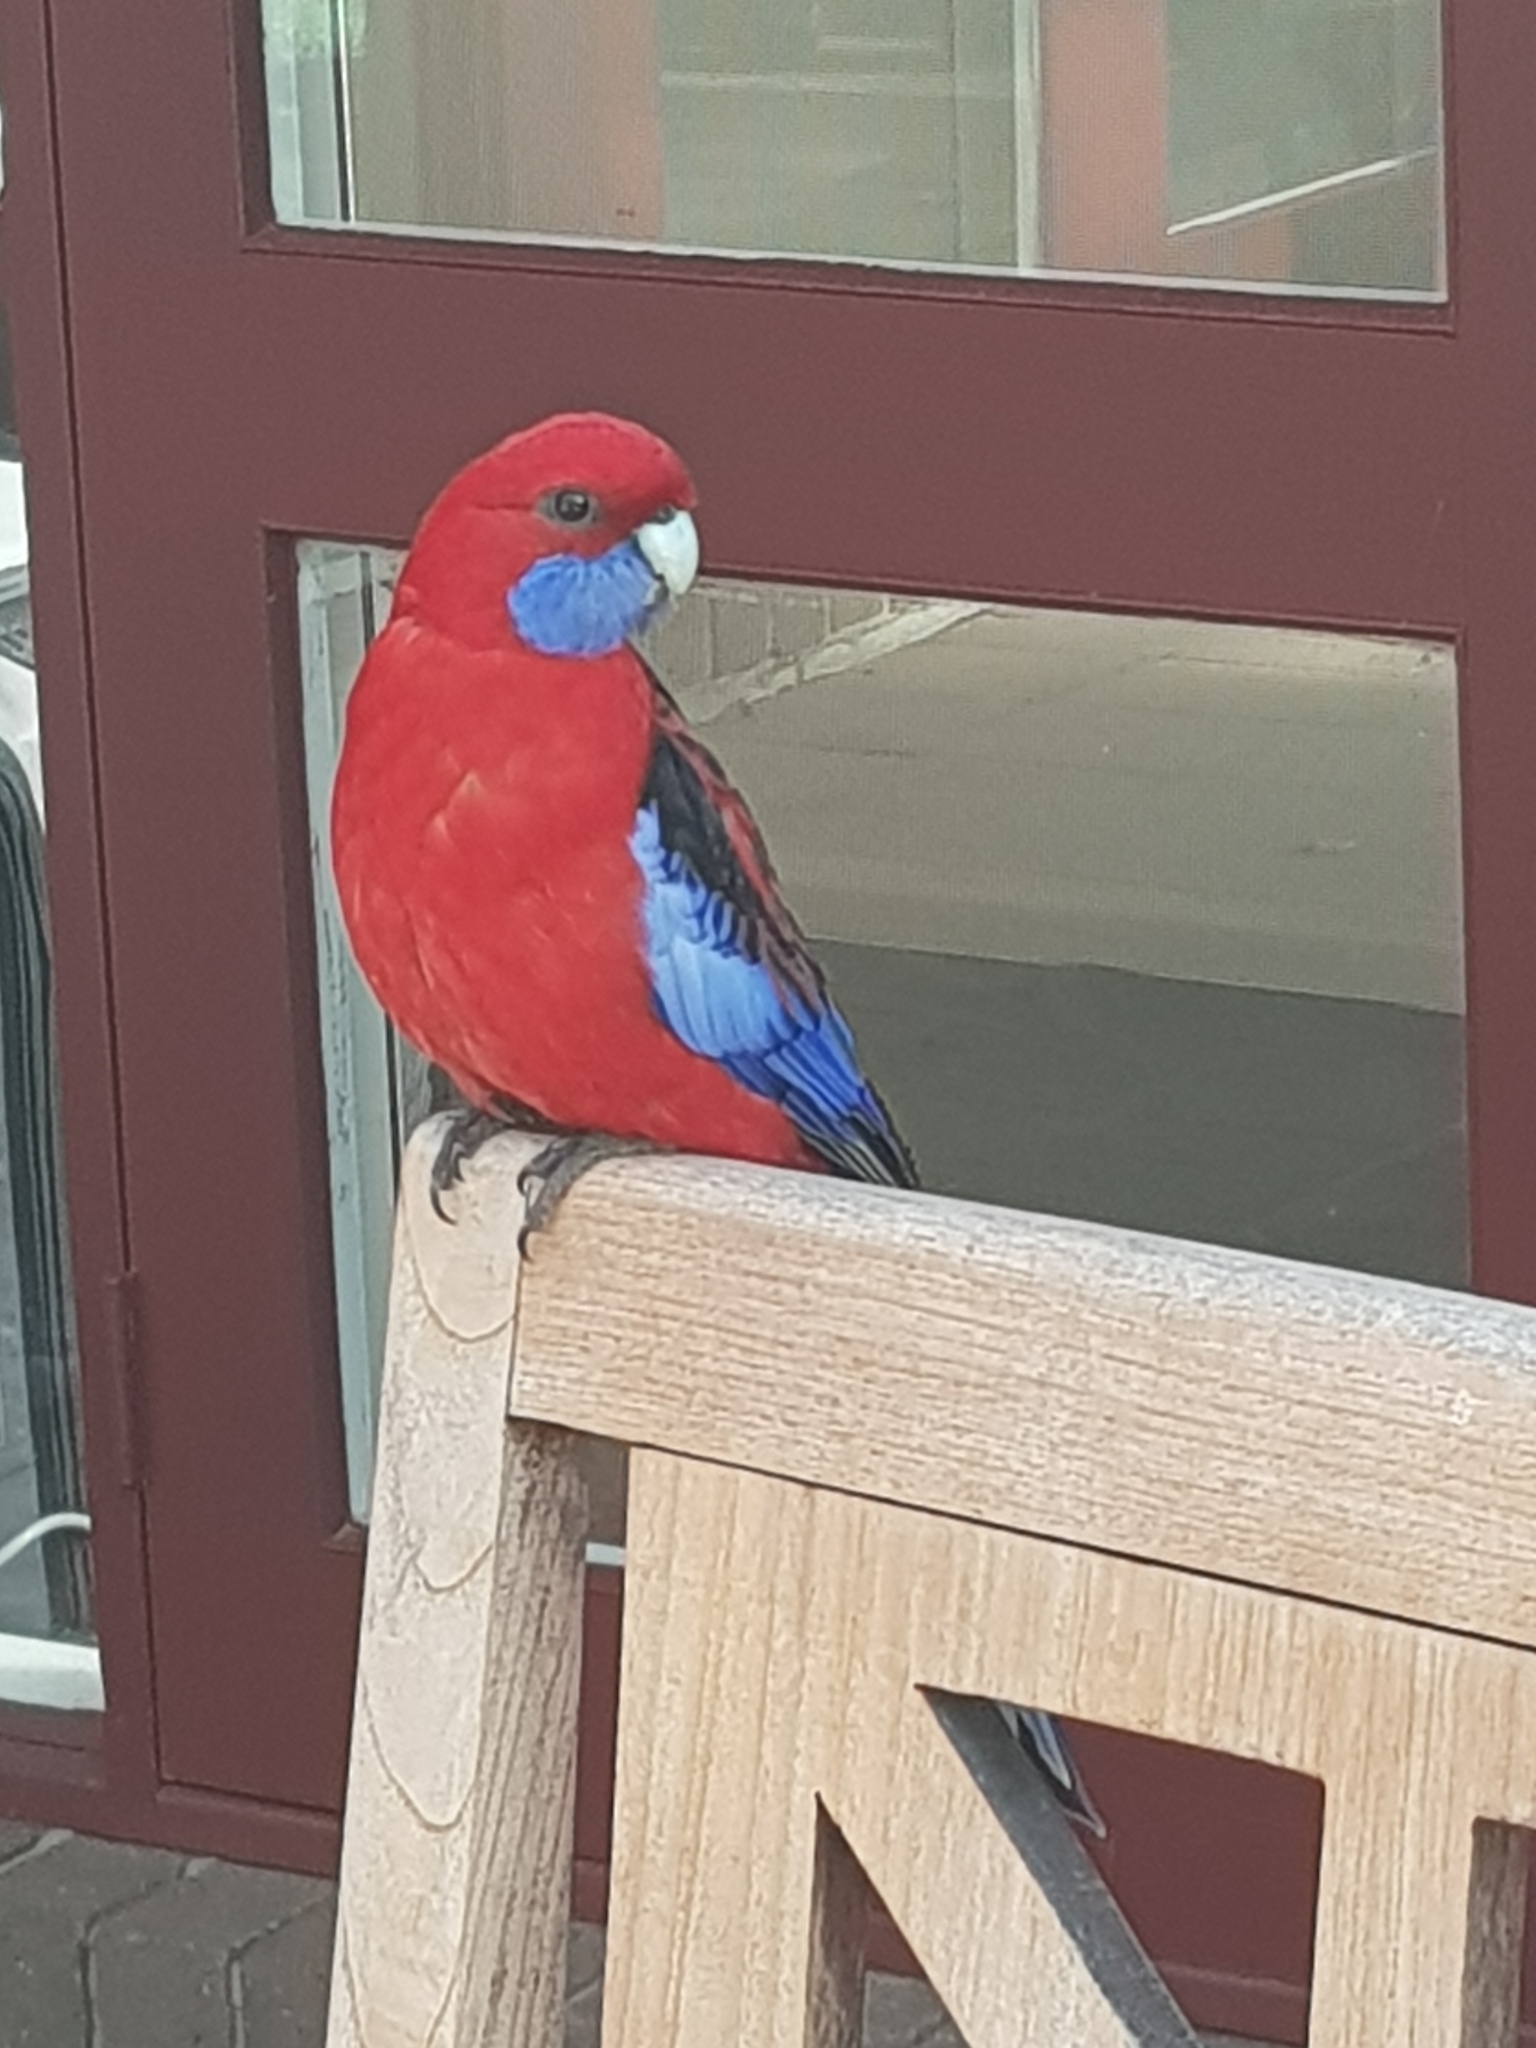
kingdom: Animalia
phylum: Chordata
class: Aves
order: Psittaciformes
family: Psittacidae
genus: Platycercus
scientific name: Platycercus elegans
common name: Crimson rosella
